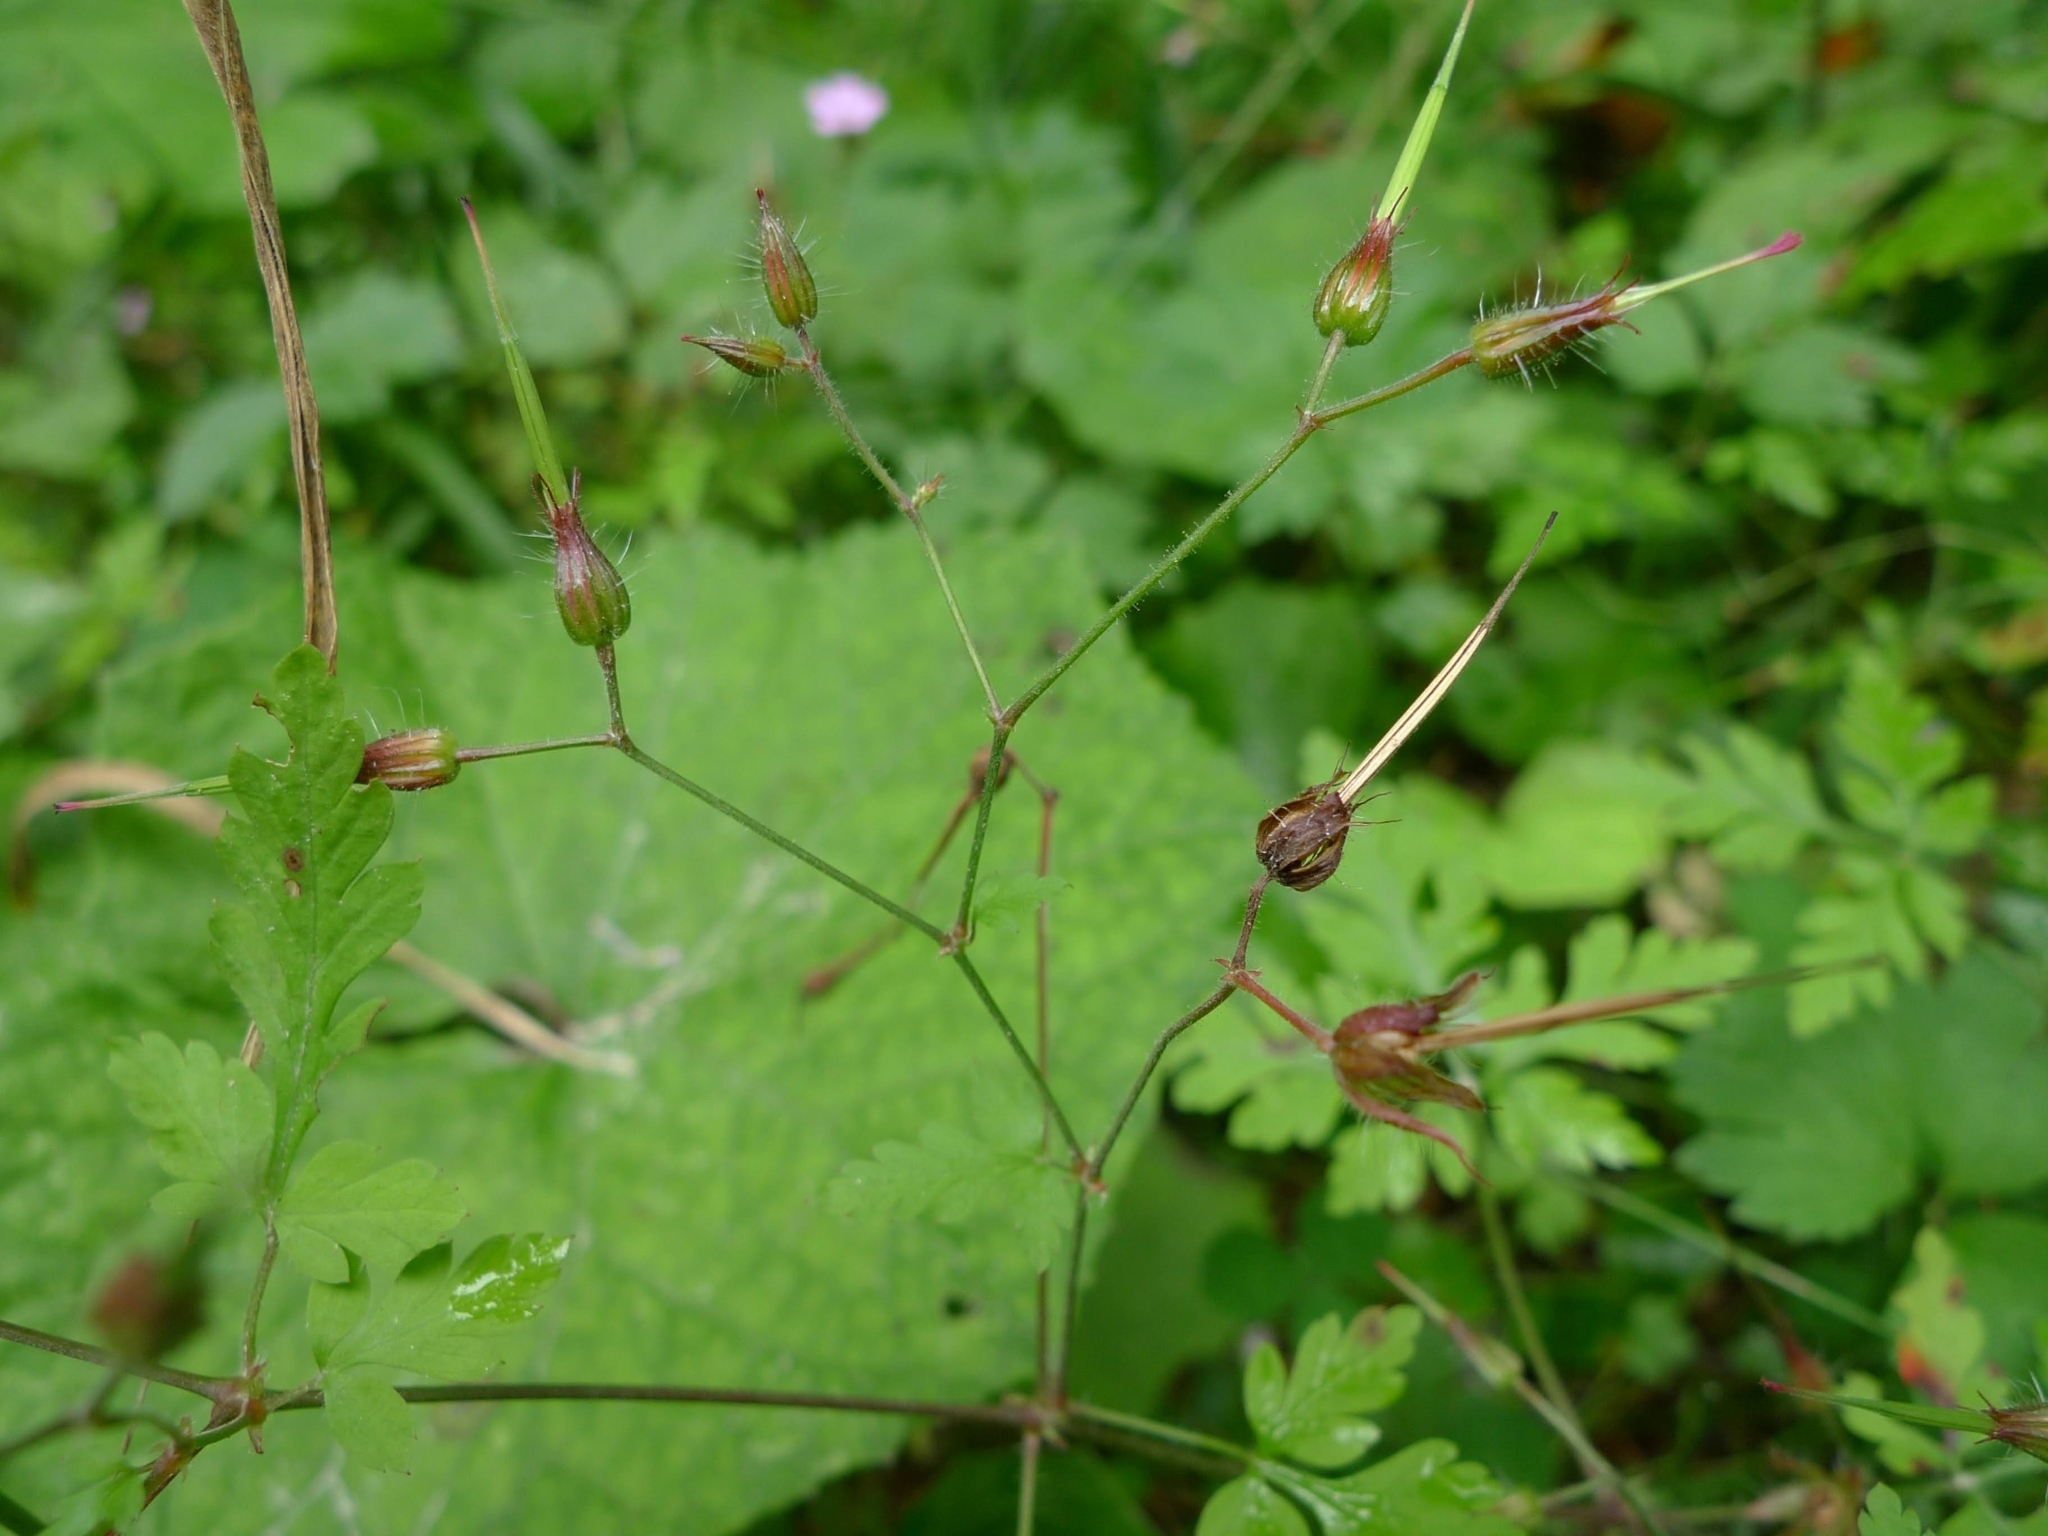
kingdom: Plantae
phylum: Tracheophyta
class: Magnoliopsida
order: Geraniales
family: Geraniaceae
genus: Geranium
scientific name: Geranium robertianum
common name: Herb-robert
